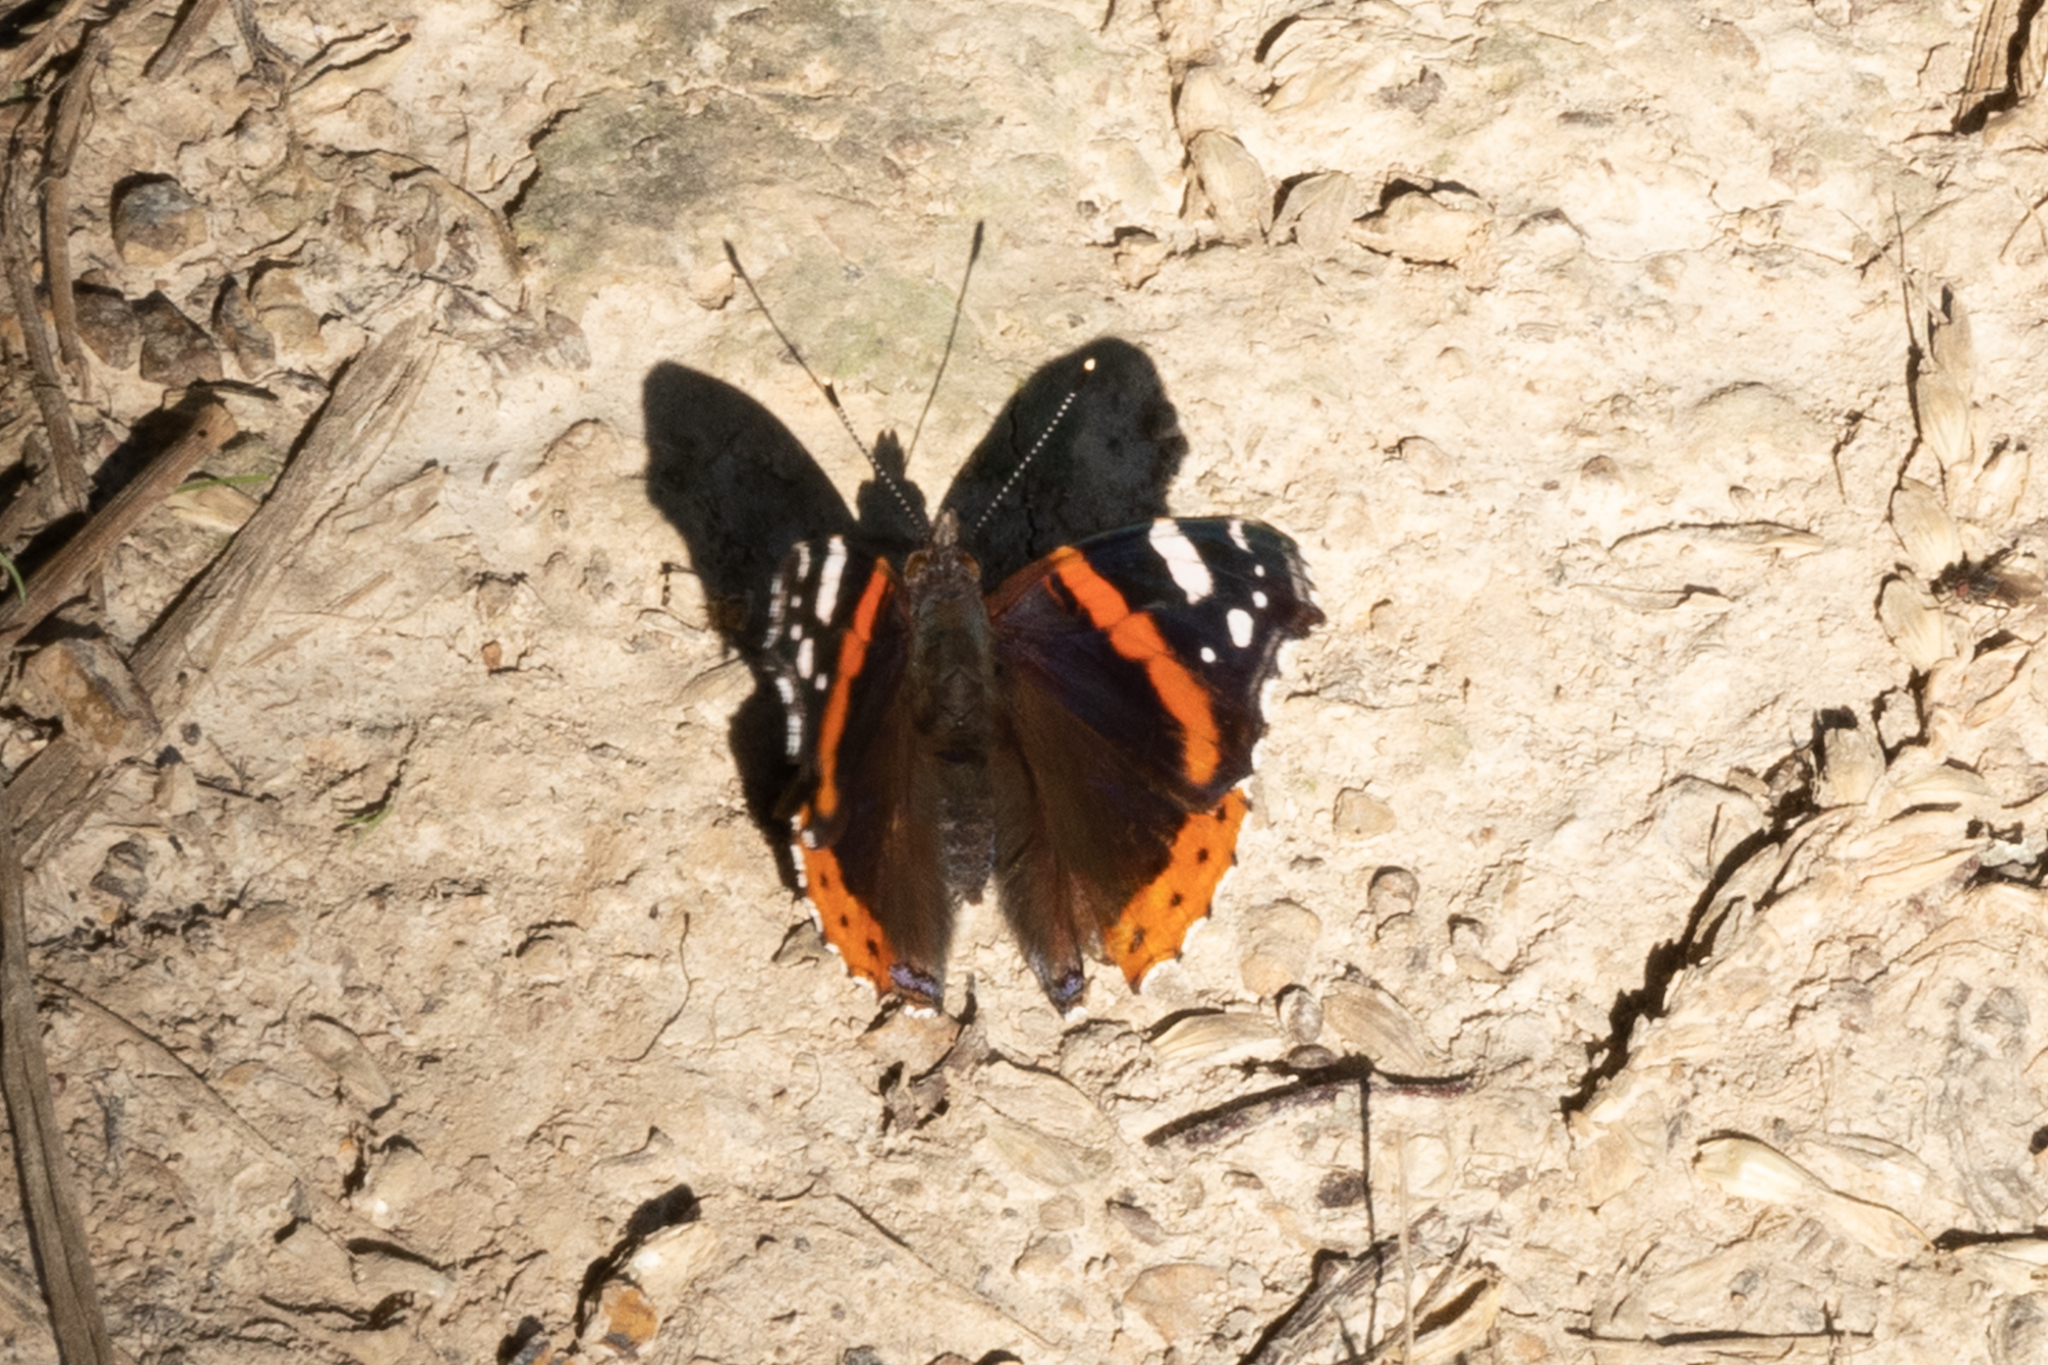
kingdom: Animalia
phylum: Arthropoda
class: Insecta
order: Lepidoptera
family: Nymphalidae
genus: Vanessa
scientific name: Vanessa atalanta
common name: Red admiral
